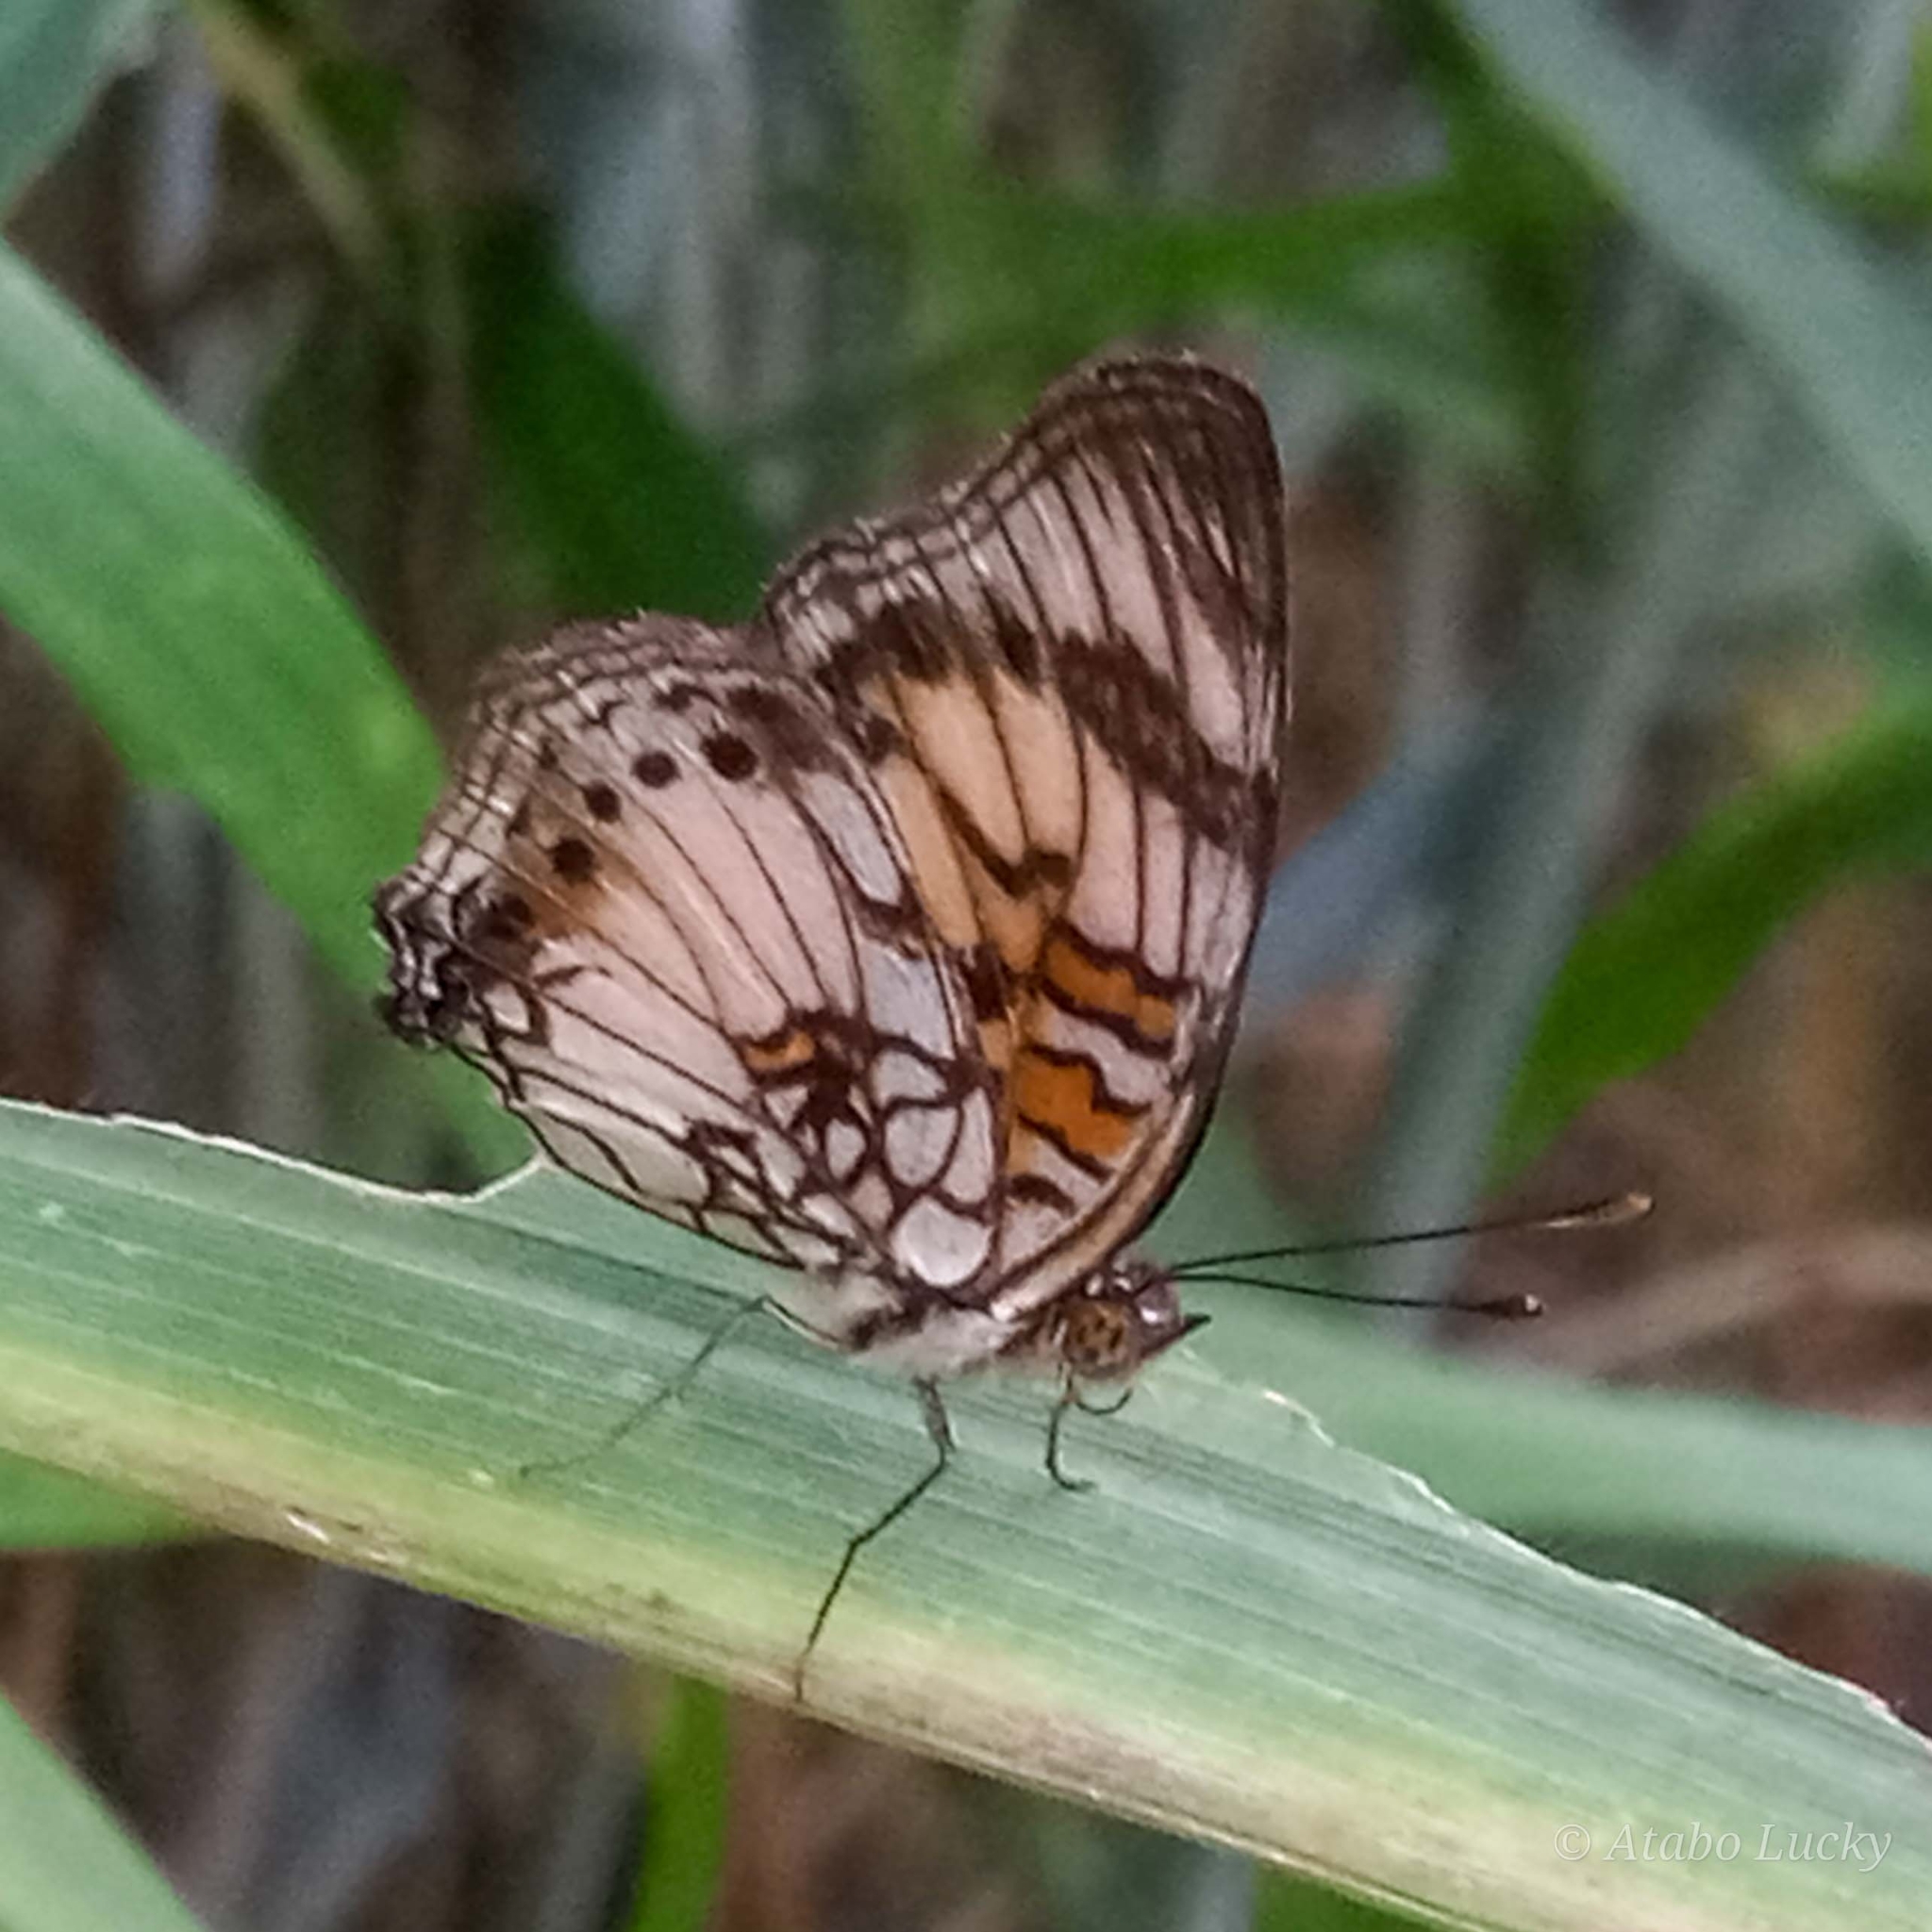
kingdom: Animalia
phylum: Arthropoda
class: Insecta
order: Lepidoptera
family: Nymphalidae
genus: Junonia
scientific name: Junonia sophia
